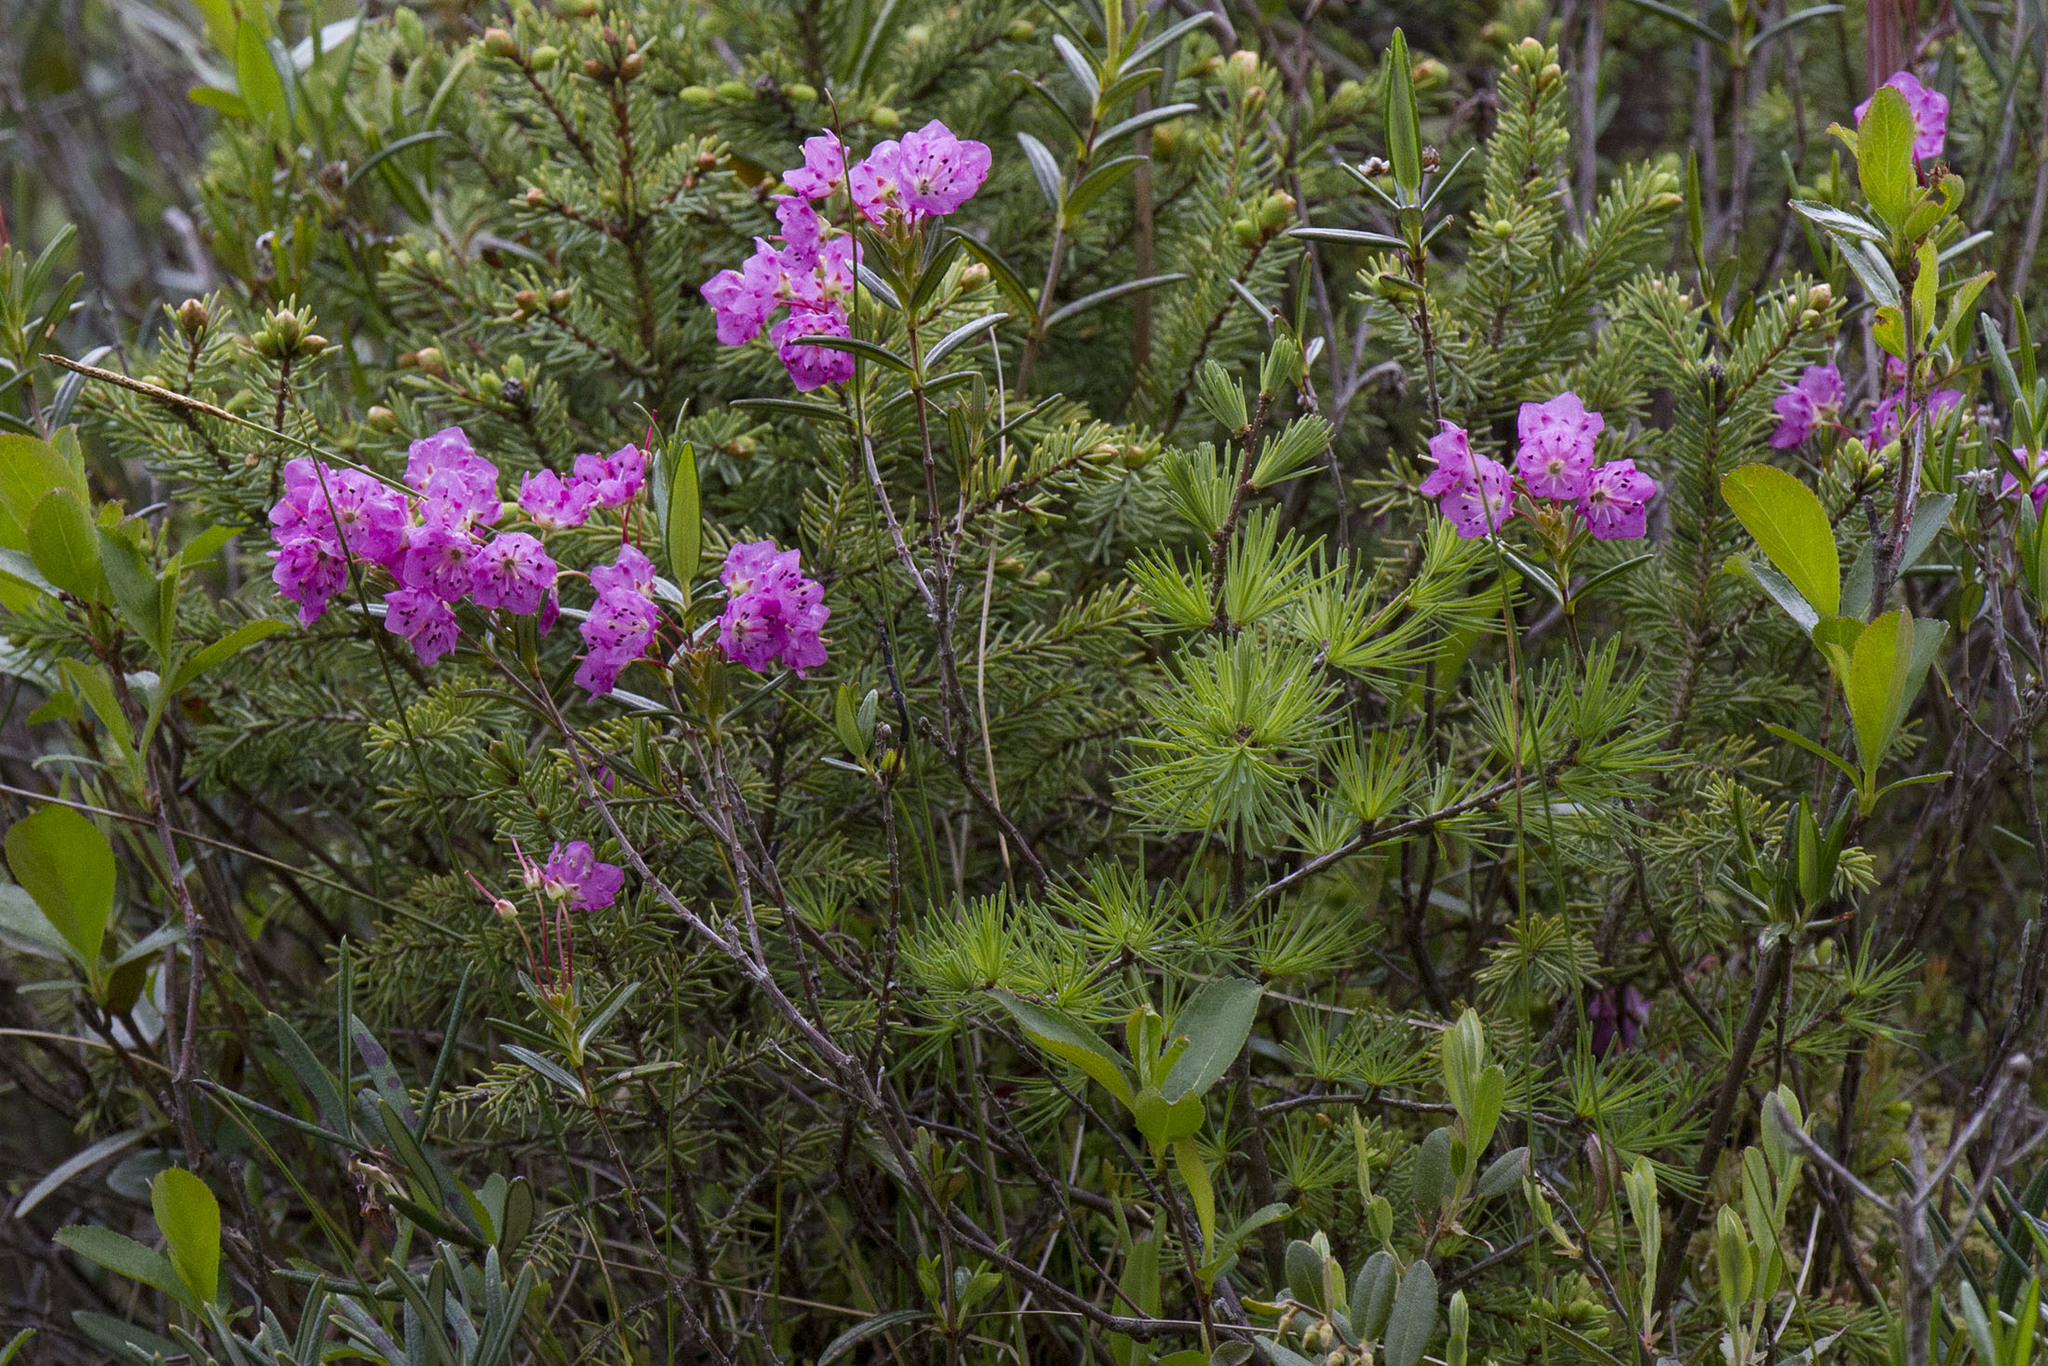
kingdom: Plantae
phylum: Tracheophyta
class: Magnoliopsida
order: Ericales
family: Ericaceae
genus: Kalmia
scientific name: Kalmia polifolia
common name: Bog-laurel
